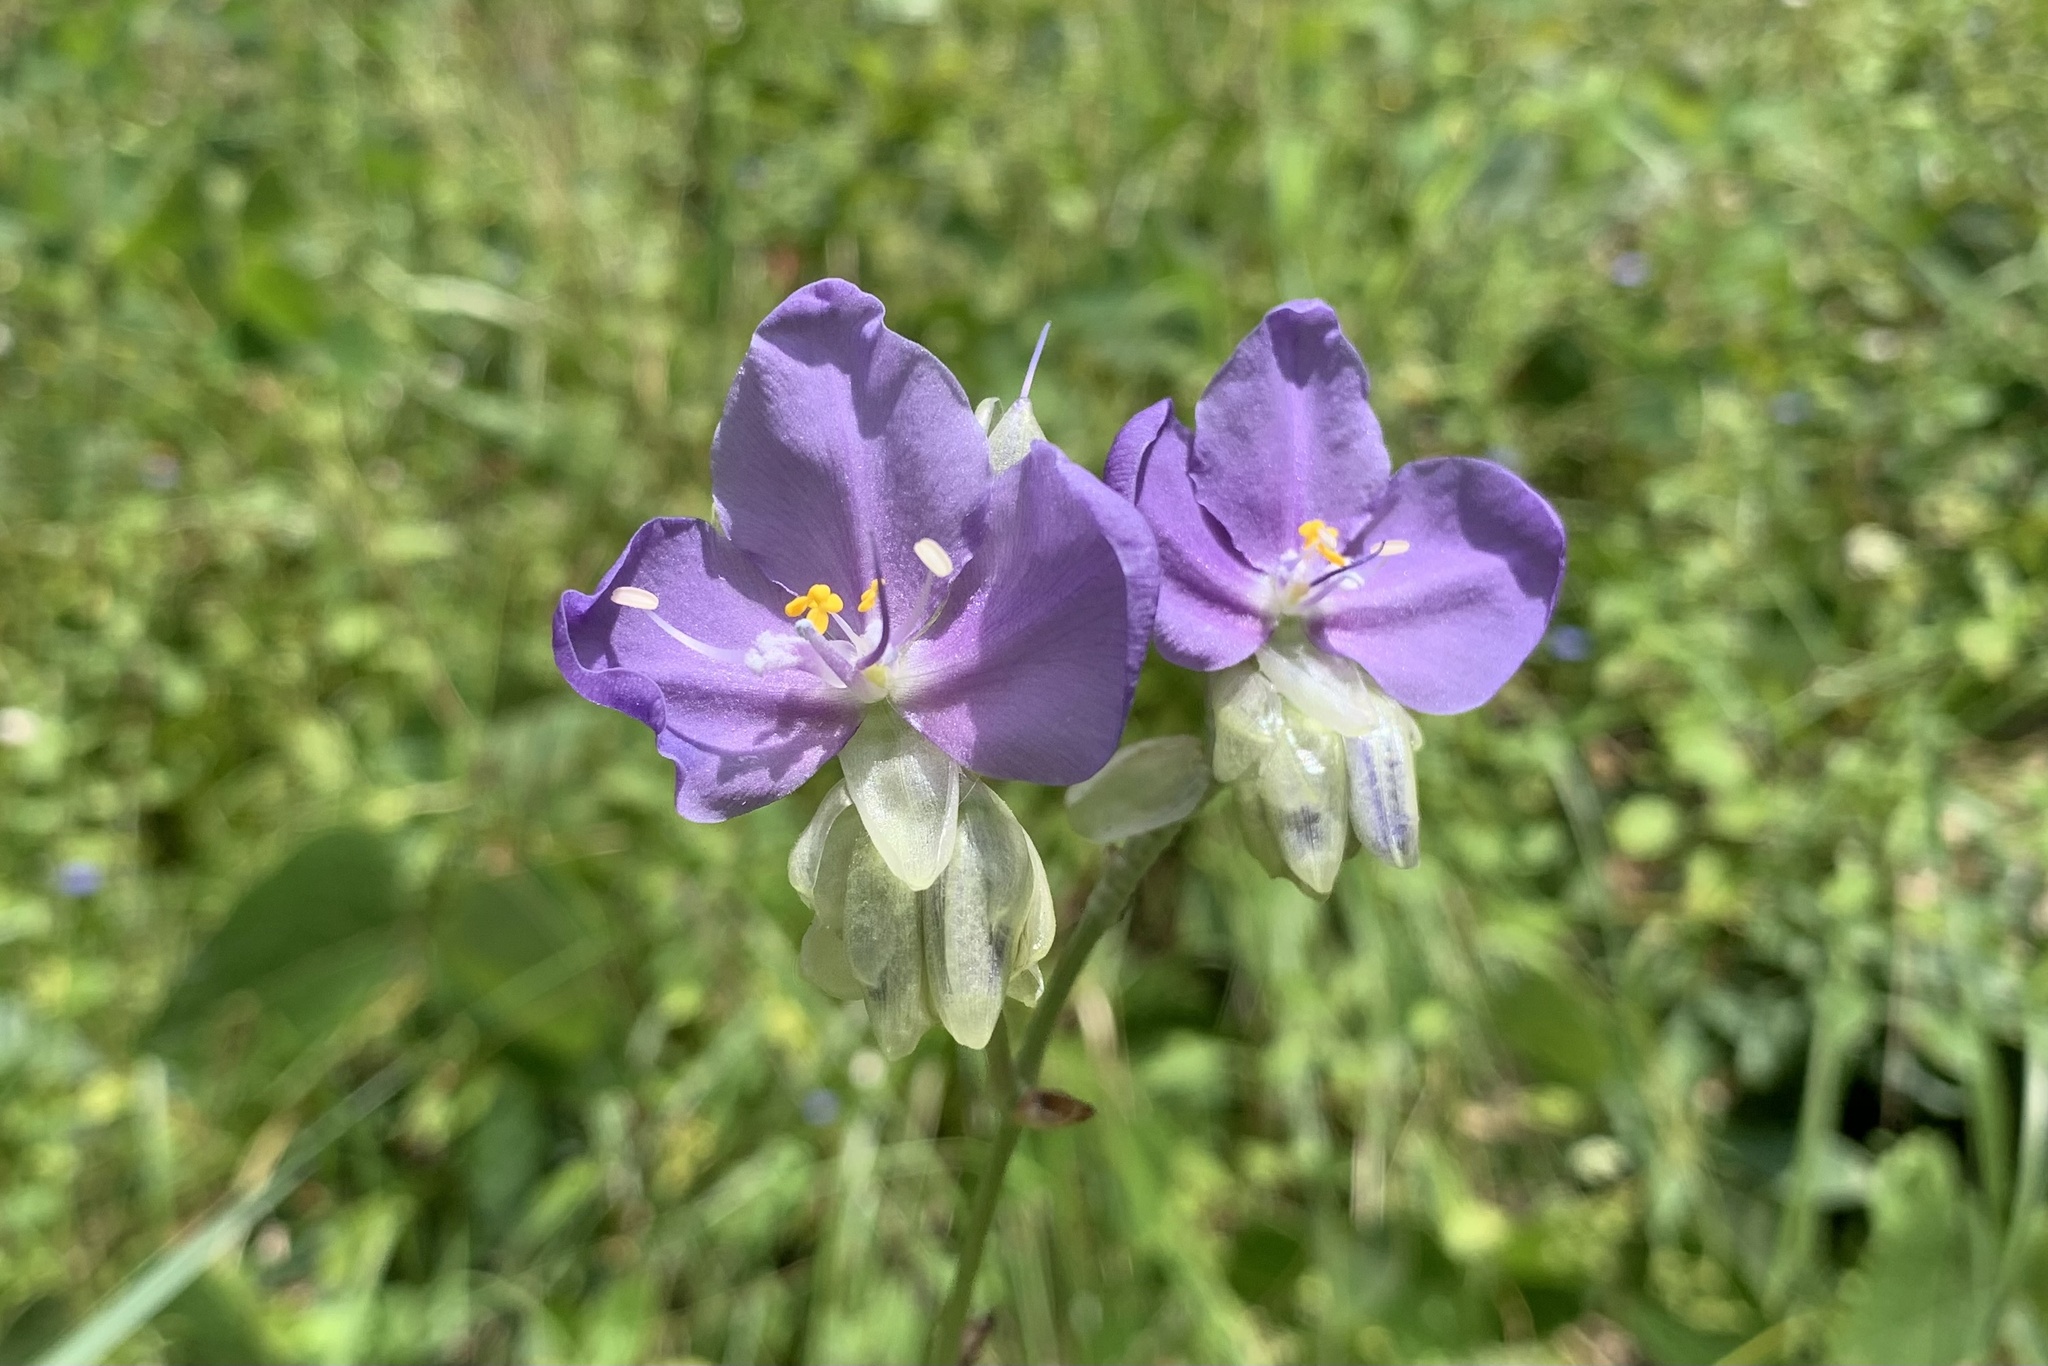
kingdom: Plantae
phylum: Tracheophyta
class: Liliopsida
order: Commelinales
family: Commelinaceae
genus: Murdannia
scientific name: Murdannia gigantea
